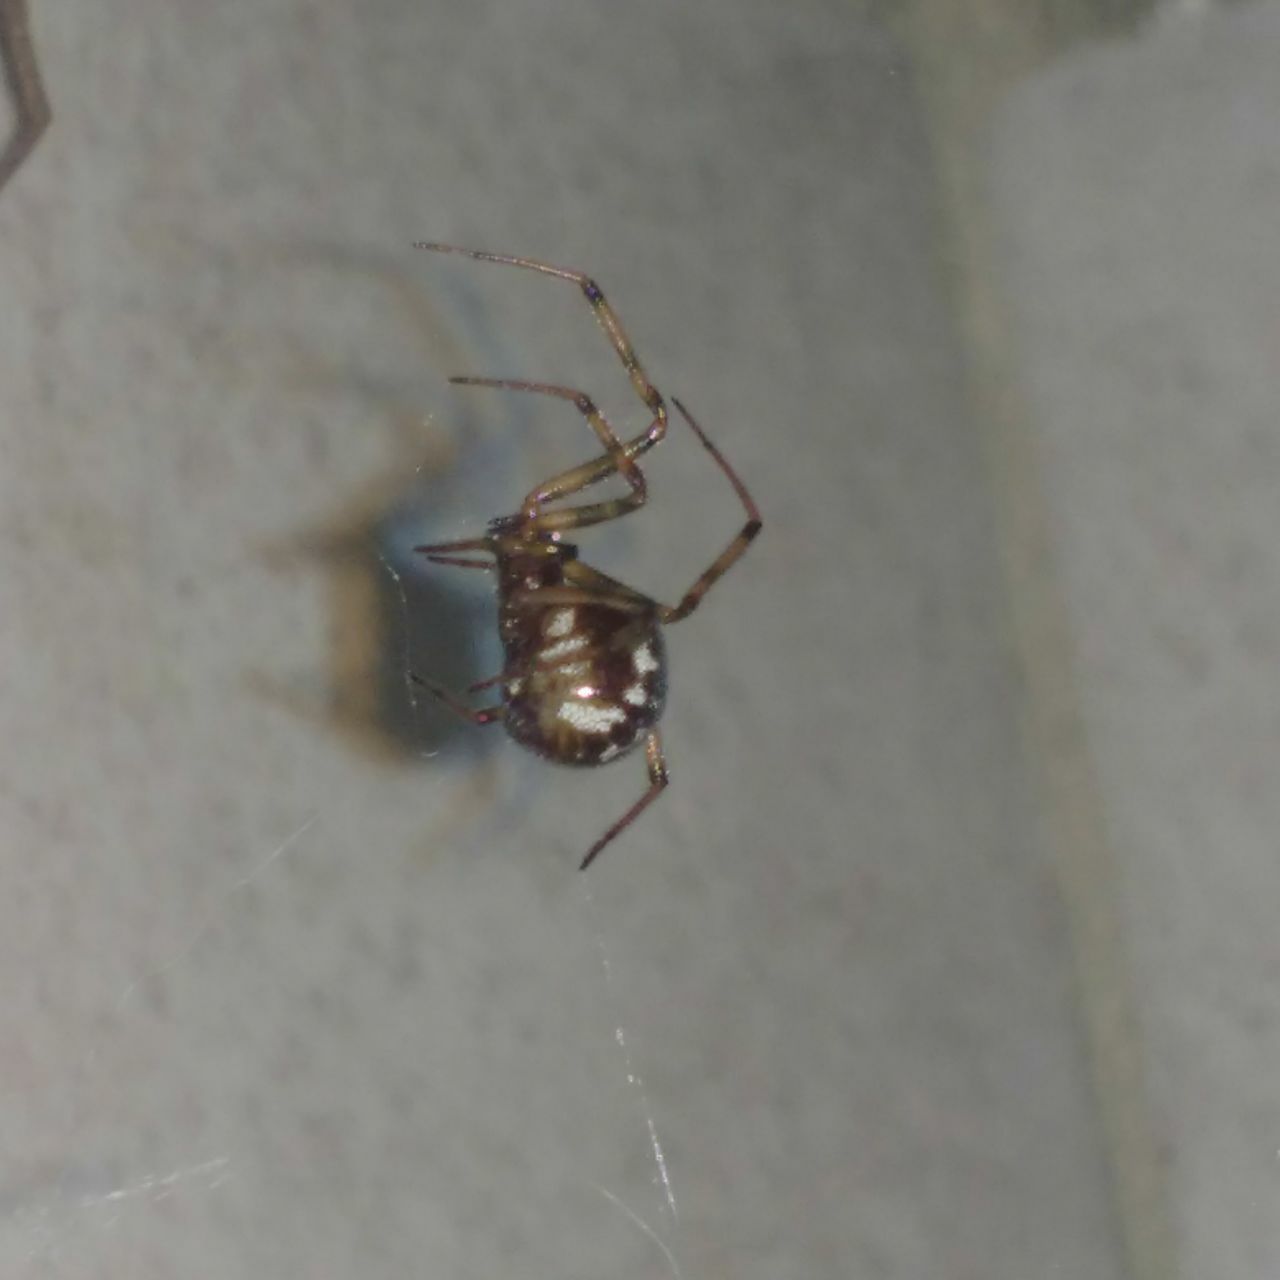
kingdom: Animalia
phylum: Arthropoda
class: Arachnida
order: Araneae
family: Theridiidae
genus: Steatoda
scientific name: Steatoda triangulosa
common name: Triangulate bud spider
